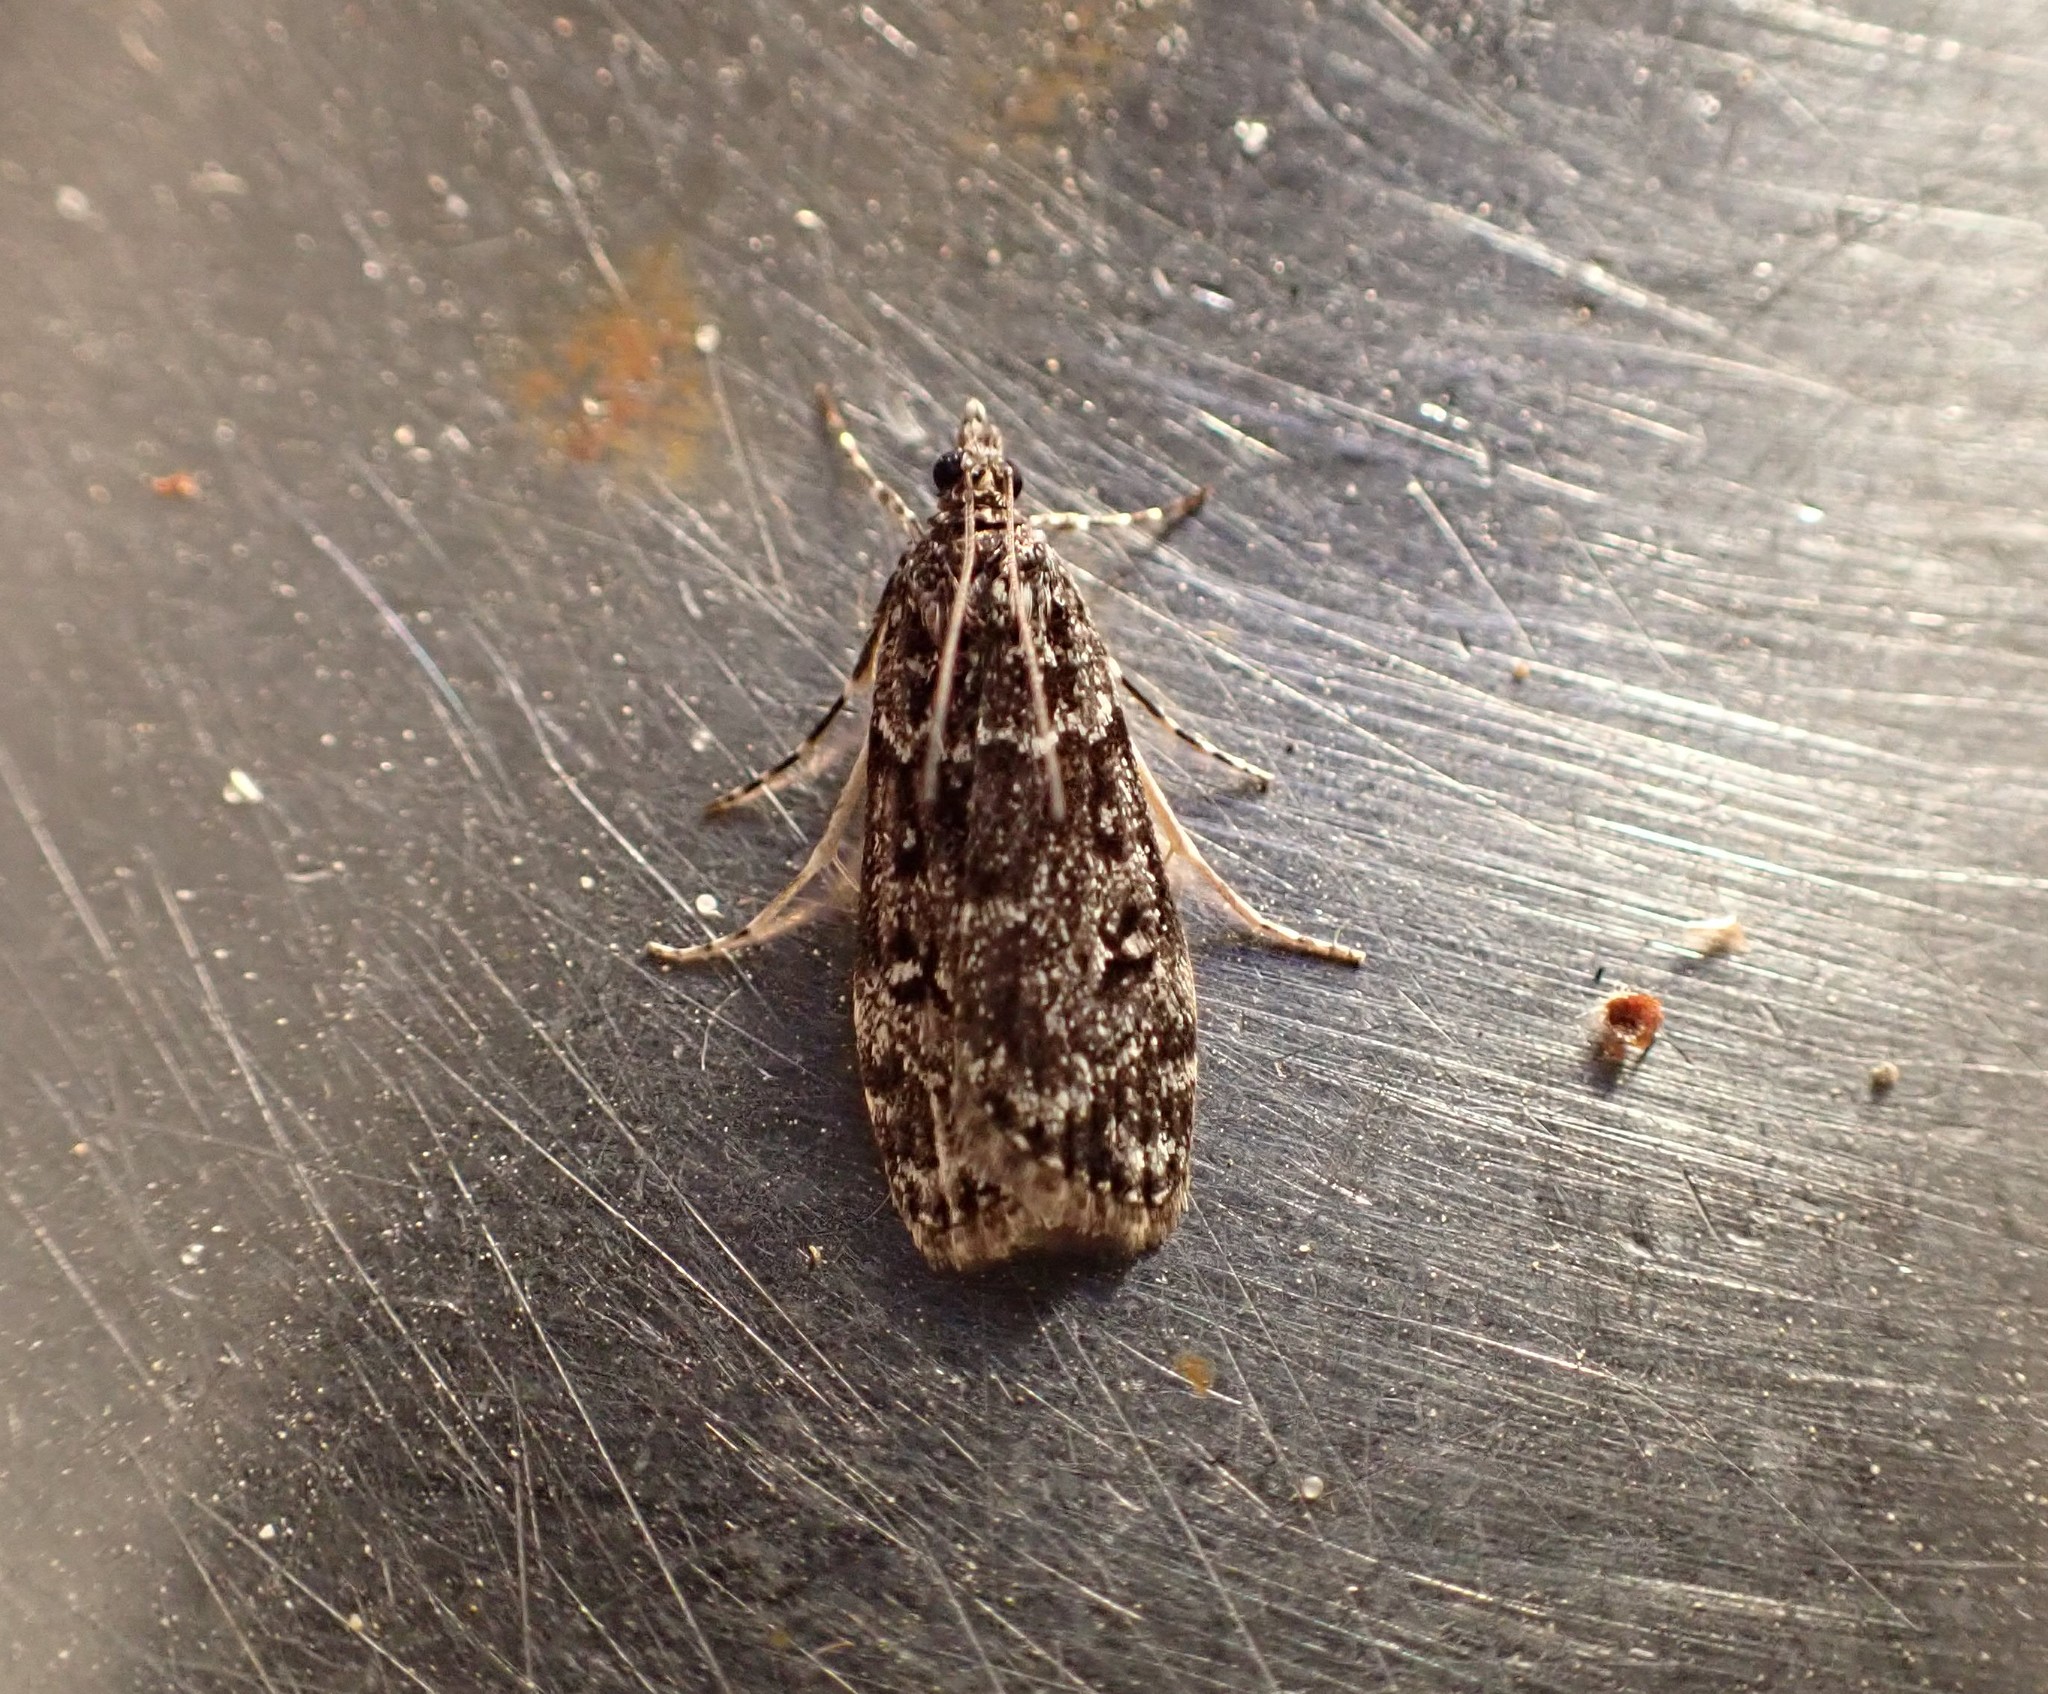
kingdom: Animalia
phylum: Arthropoda
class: Insecta
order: Lepidoptera
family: Crambidae
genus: Eudonia
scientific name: Eudonia philerga
